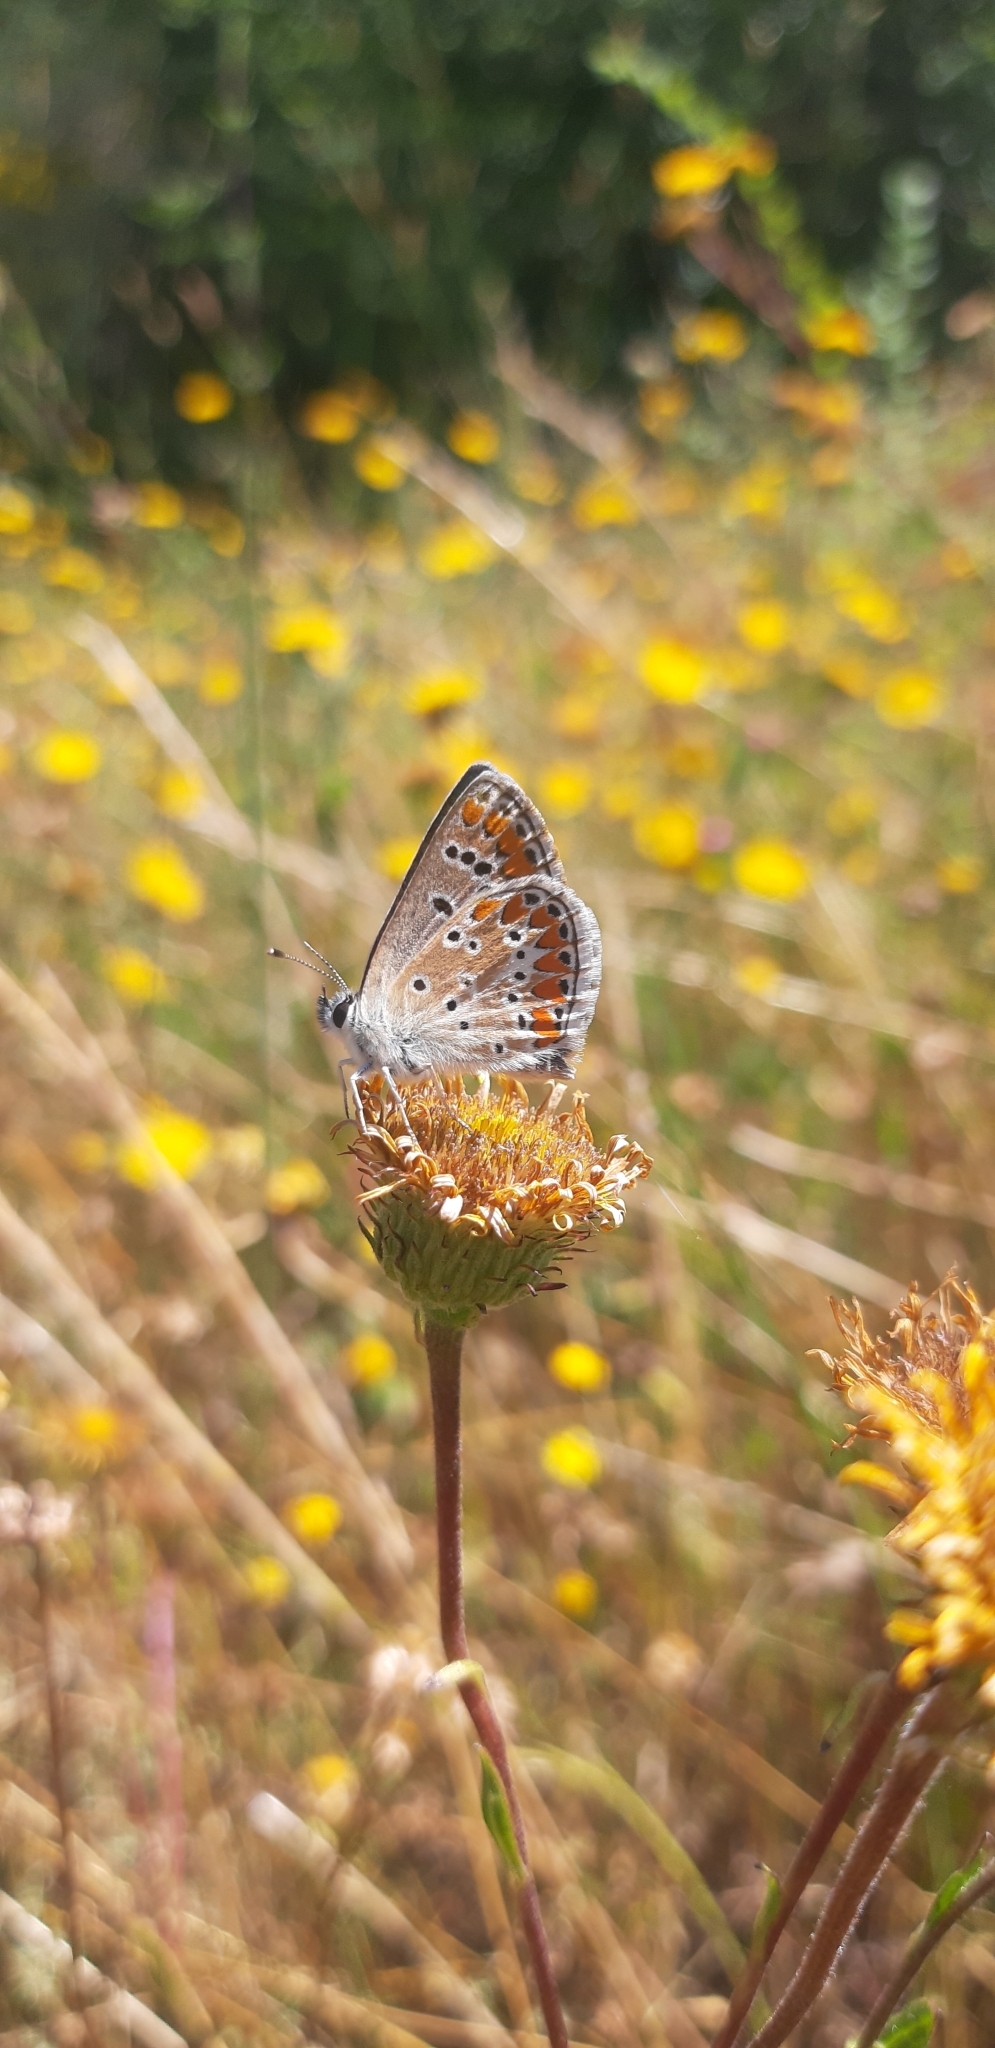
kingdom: Animalia
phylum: Arthropoda
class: Insecta
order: Lepidoptera
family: Lycaenidae
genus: Aricia
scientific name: Aricia agestis
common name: Brown argus
